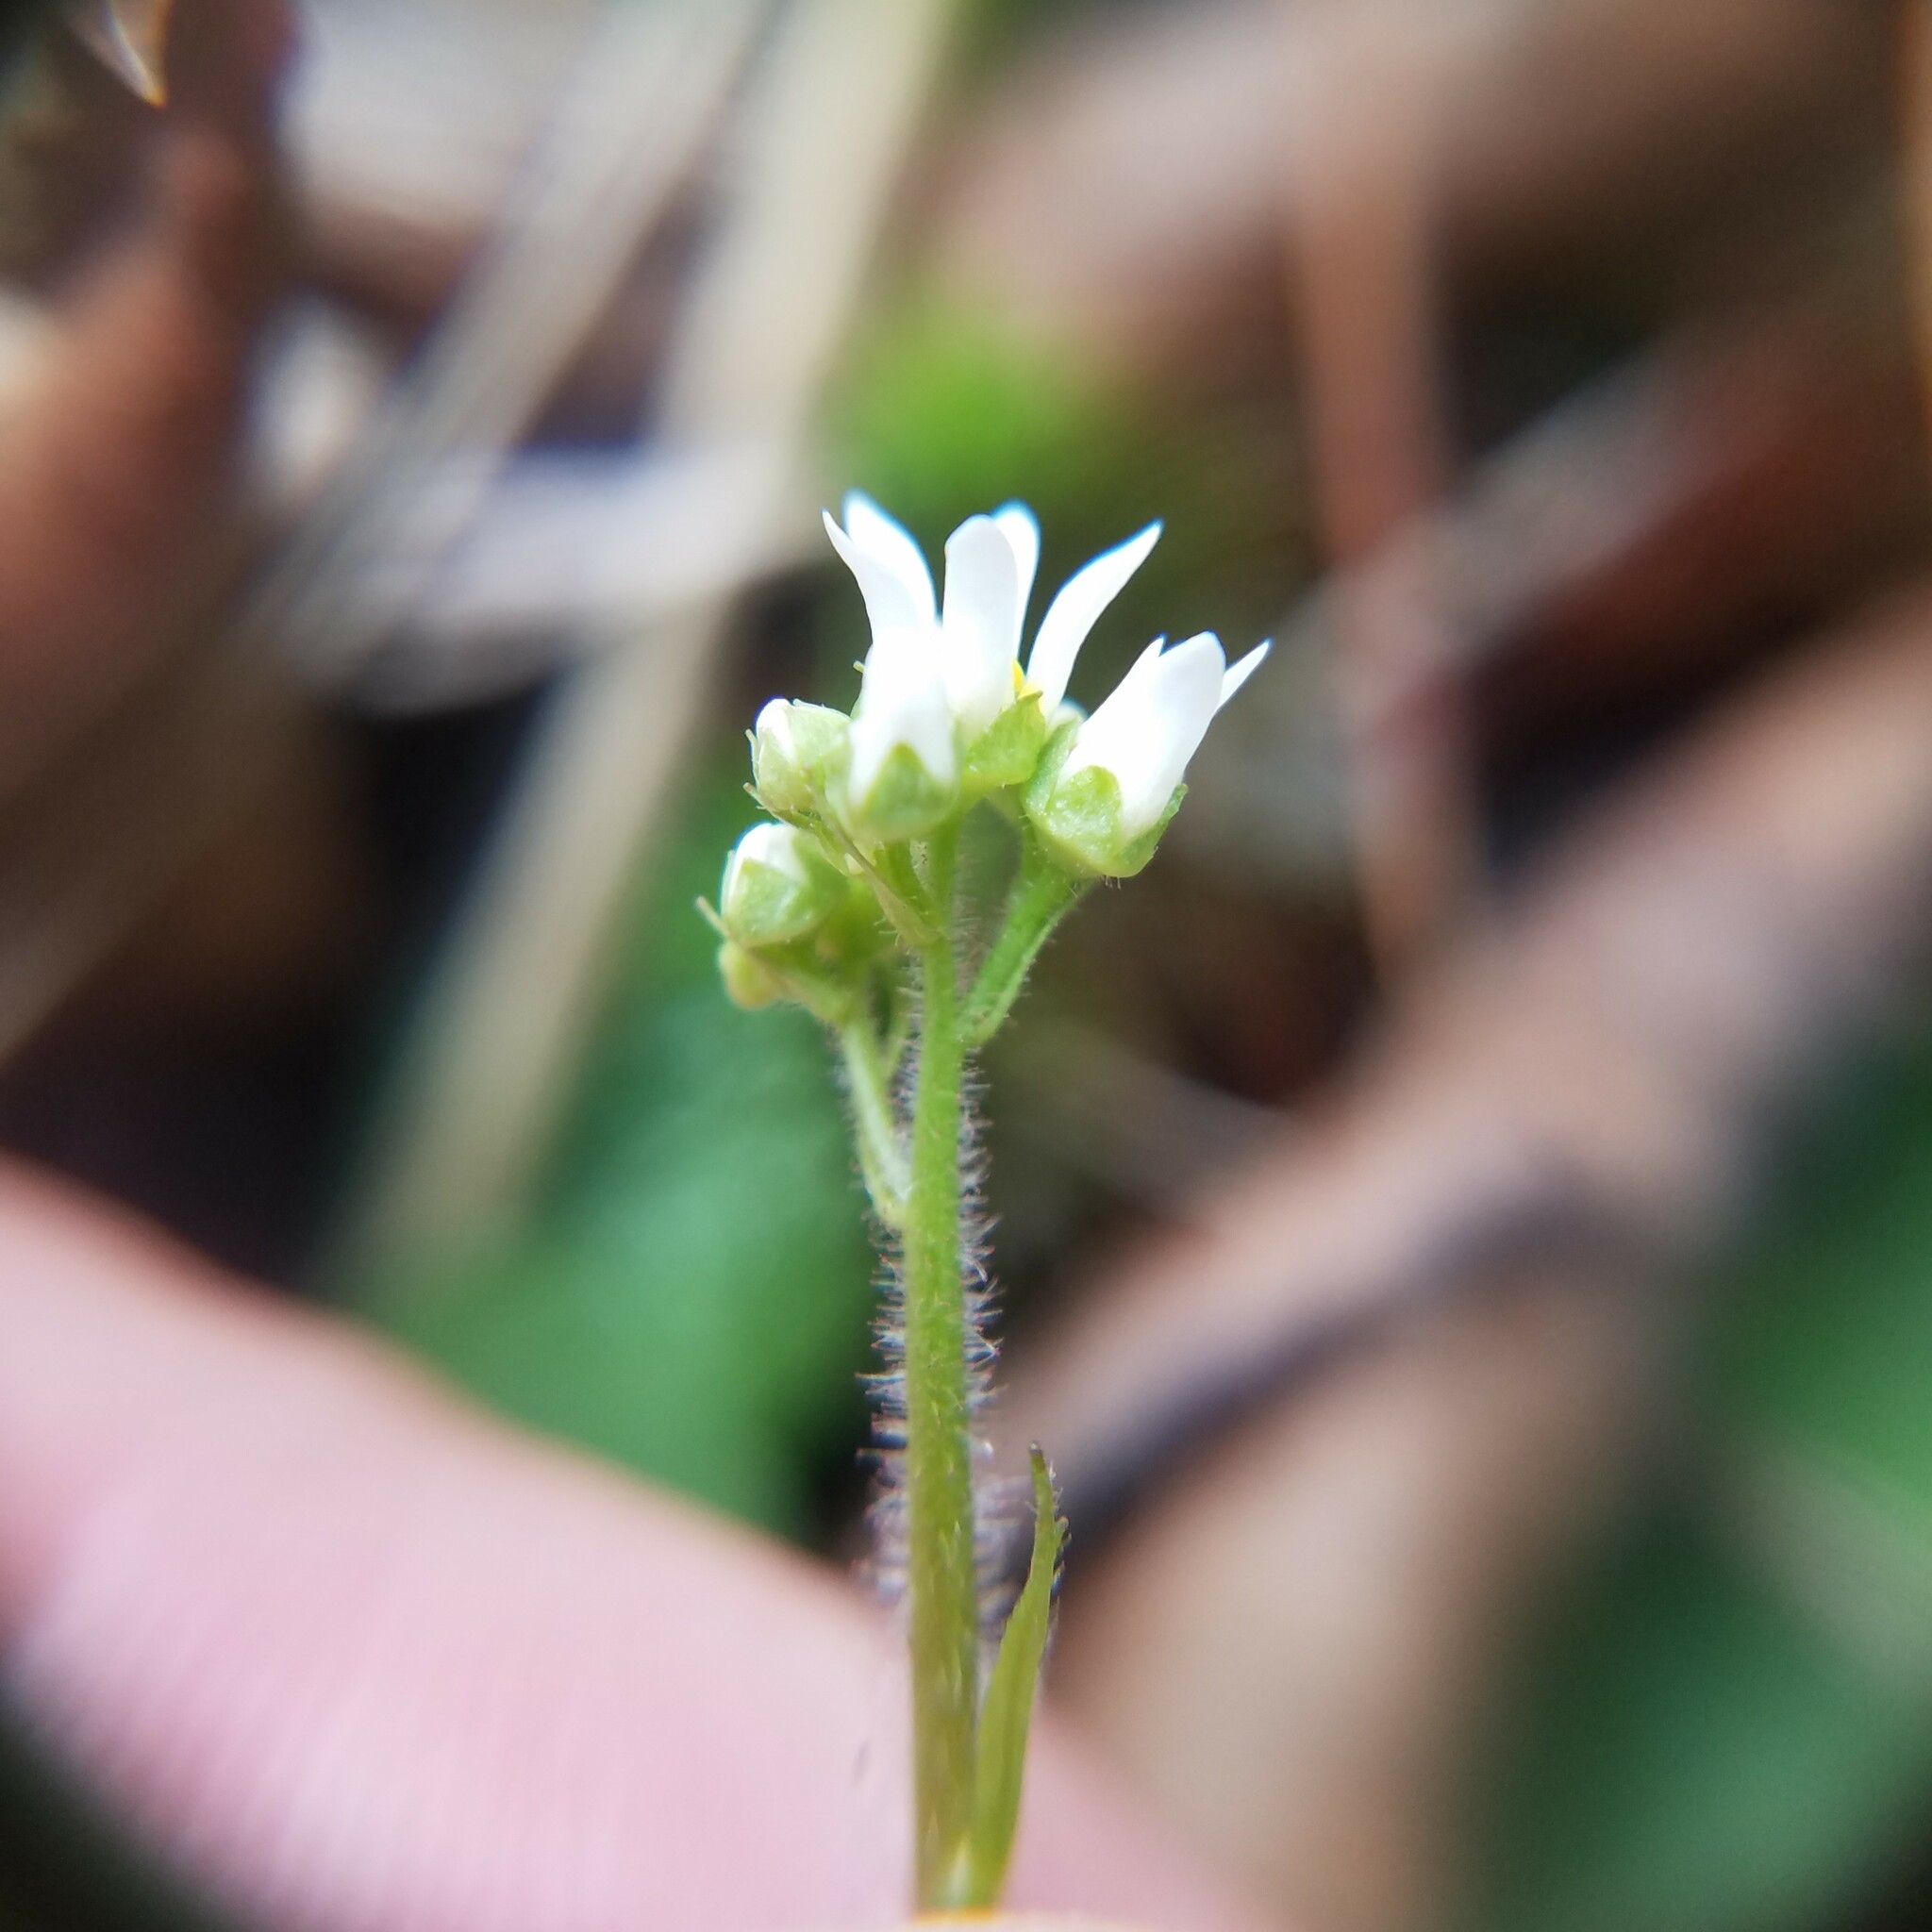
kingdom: Plantae
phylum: Tracheophyta
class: Magnoliopsida
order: Saxifragales
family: Saxifragaceae
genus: Micranthes
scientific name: Micranthes virginiensis
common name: Early saxifrage
